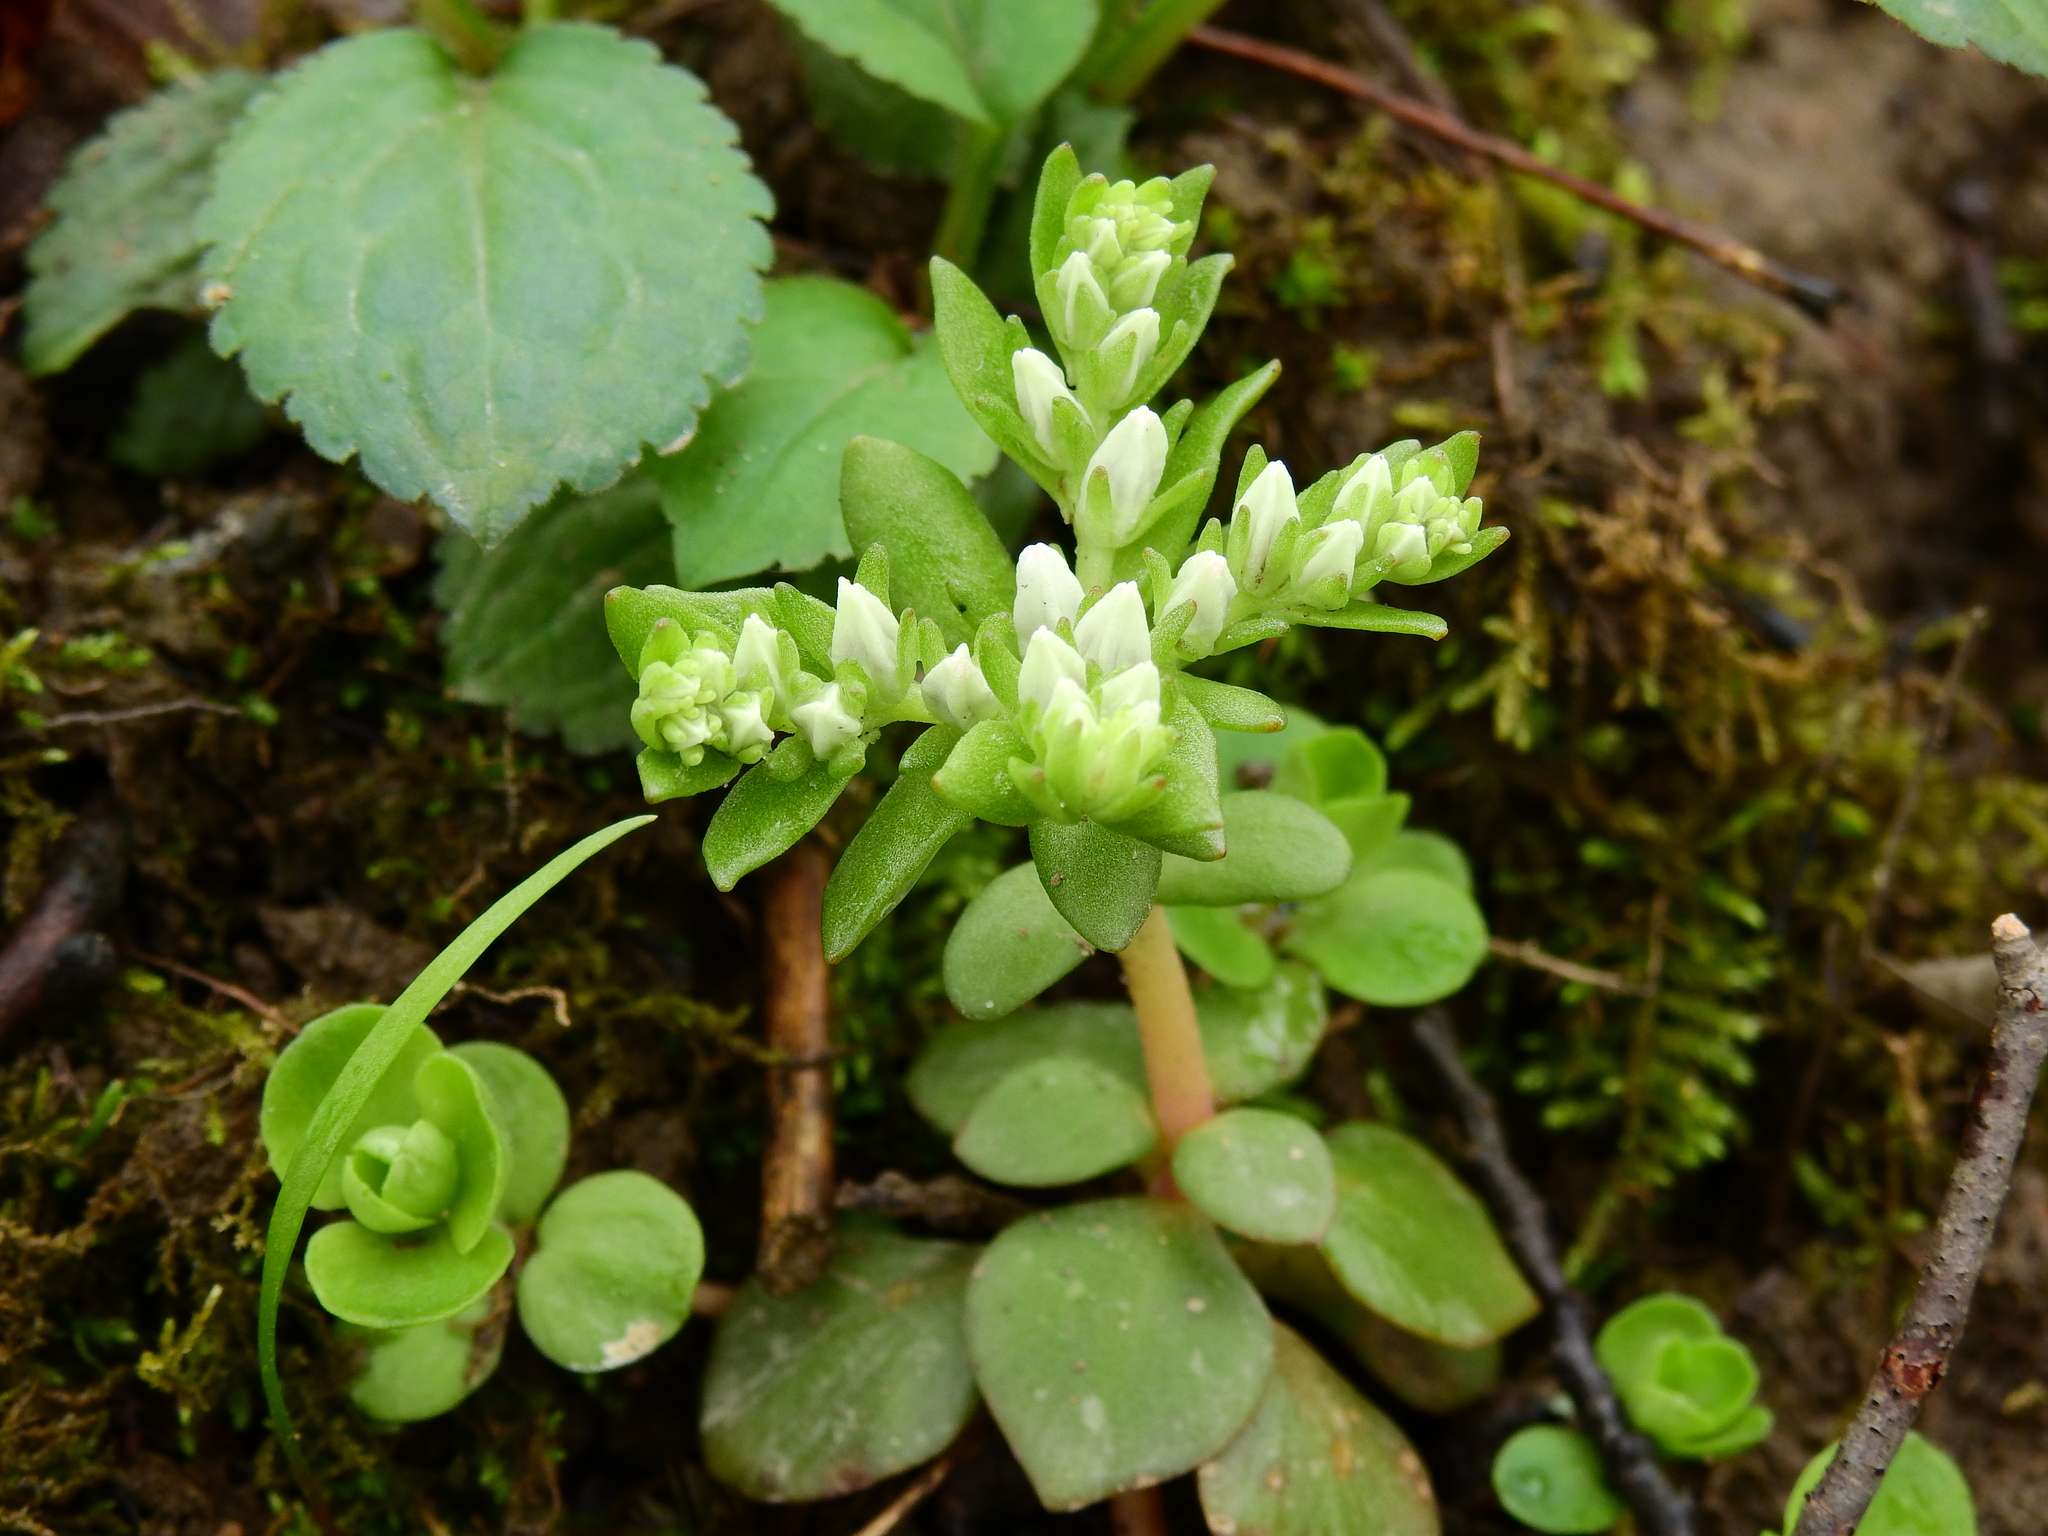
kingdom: Plantae
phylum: Tracheophyta
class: Magnoliopsida
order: Saxifragales
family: Crassulaceae
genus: Sedum
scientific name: Sedum ternatum
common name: Wild stonecrop
